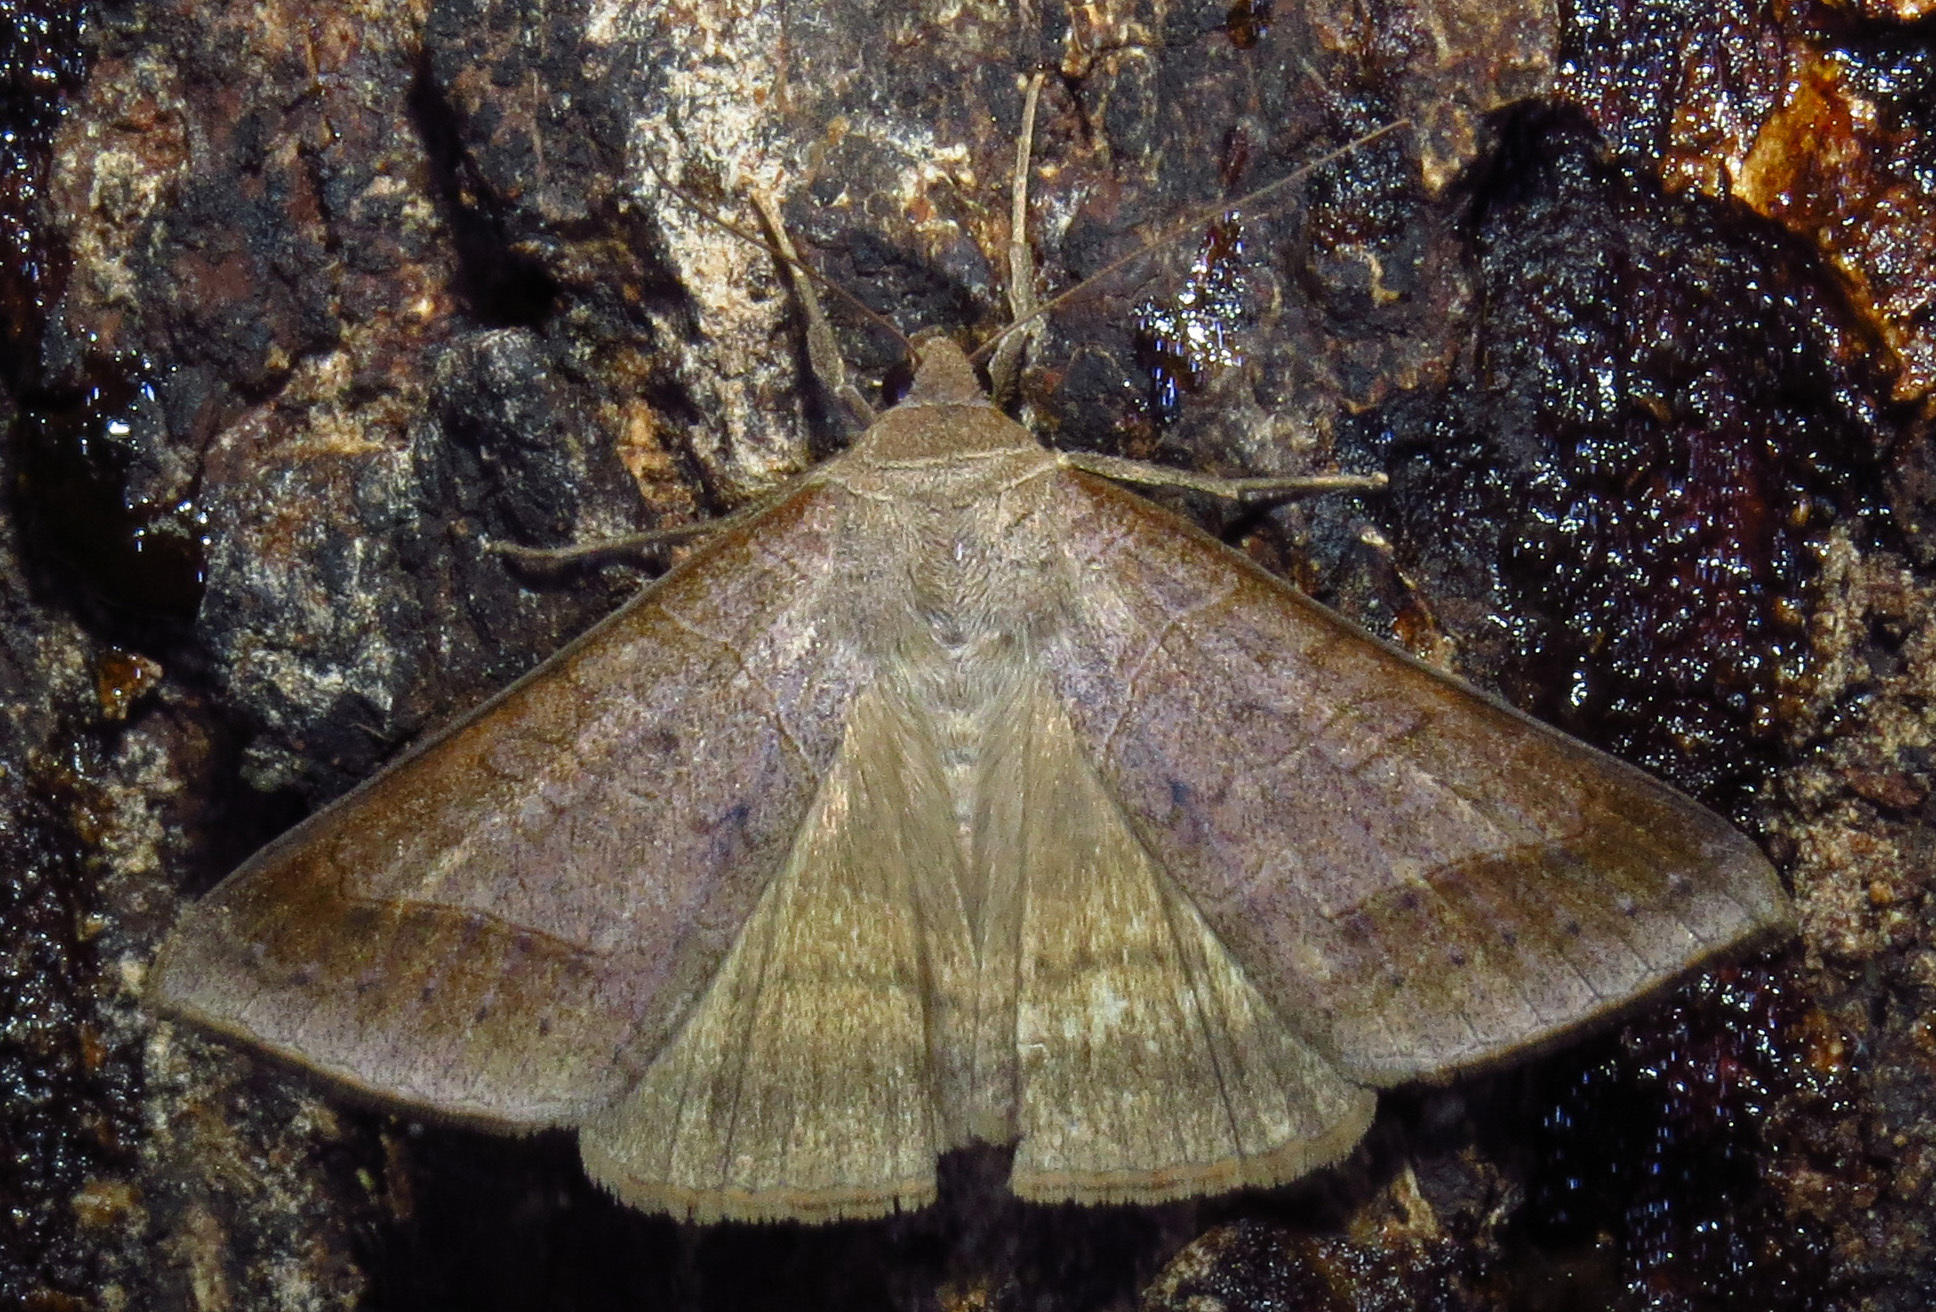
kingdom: Animalia
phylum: Arthropoda
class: Insecta
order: Lepidoptera
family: Erebidae
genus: Mocis
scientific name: Mocis marcida
